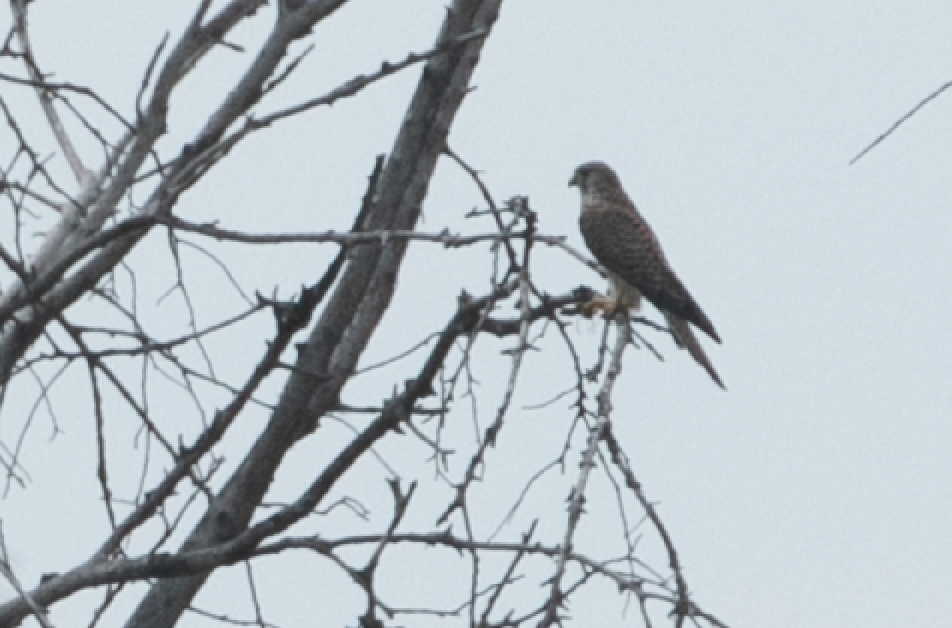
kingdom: Animalia
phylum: Chordata
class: Aves
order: Falconiformes
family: Falconidae
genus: Falco
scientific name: Falco tinnunculus
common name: Common kestrel
